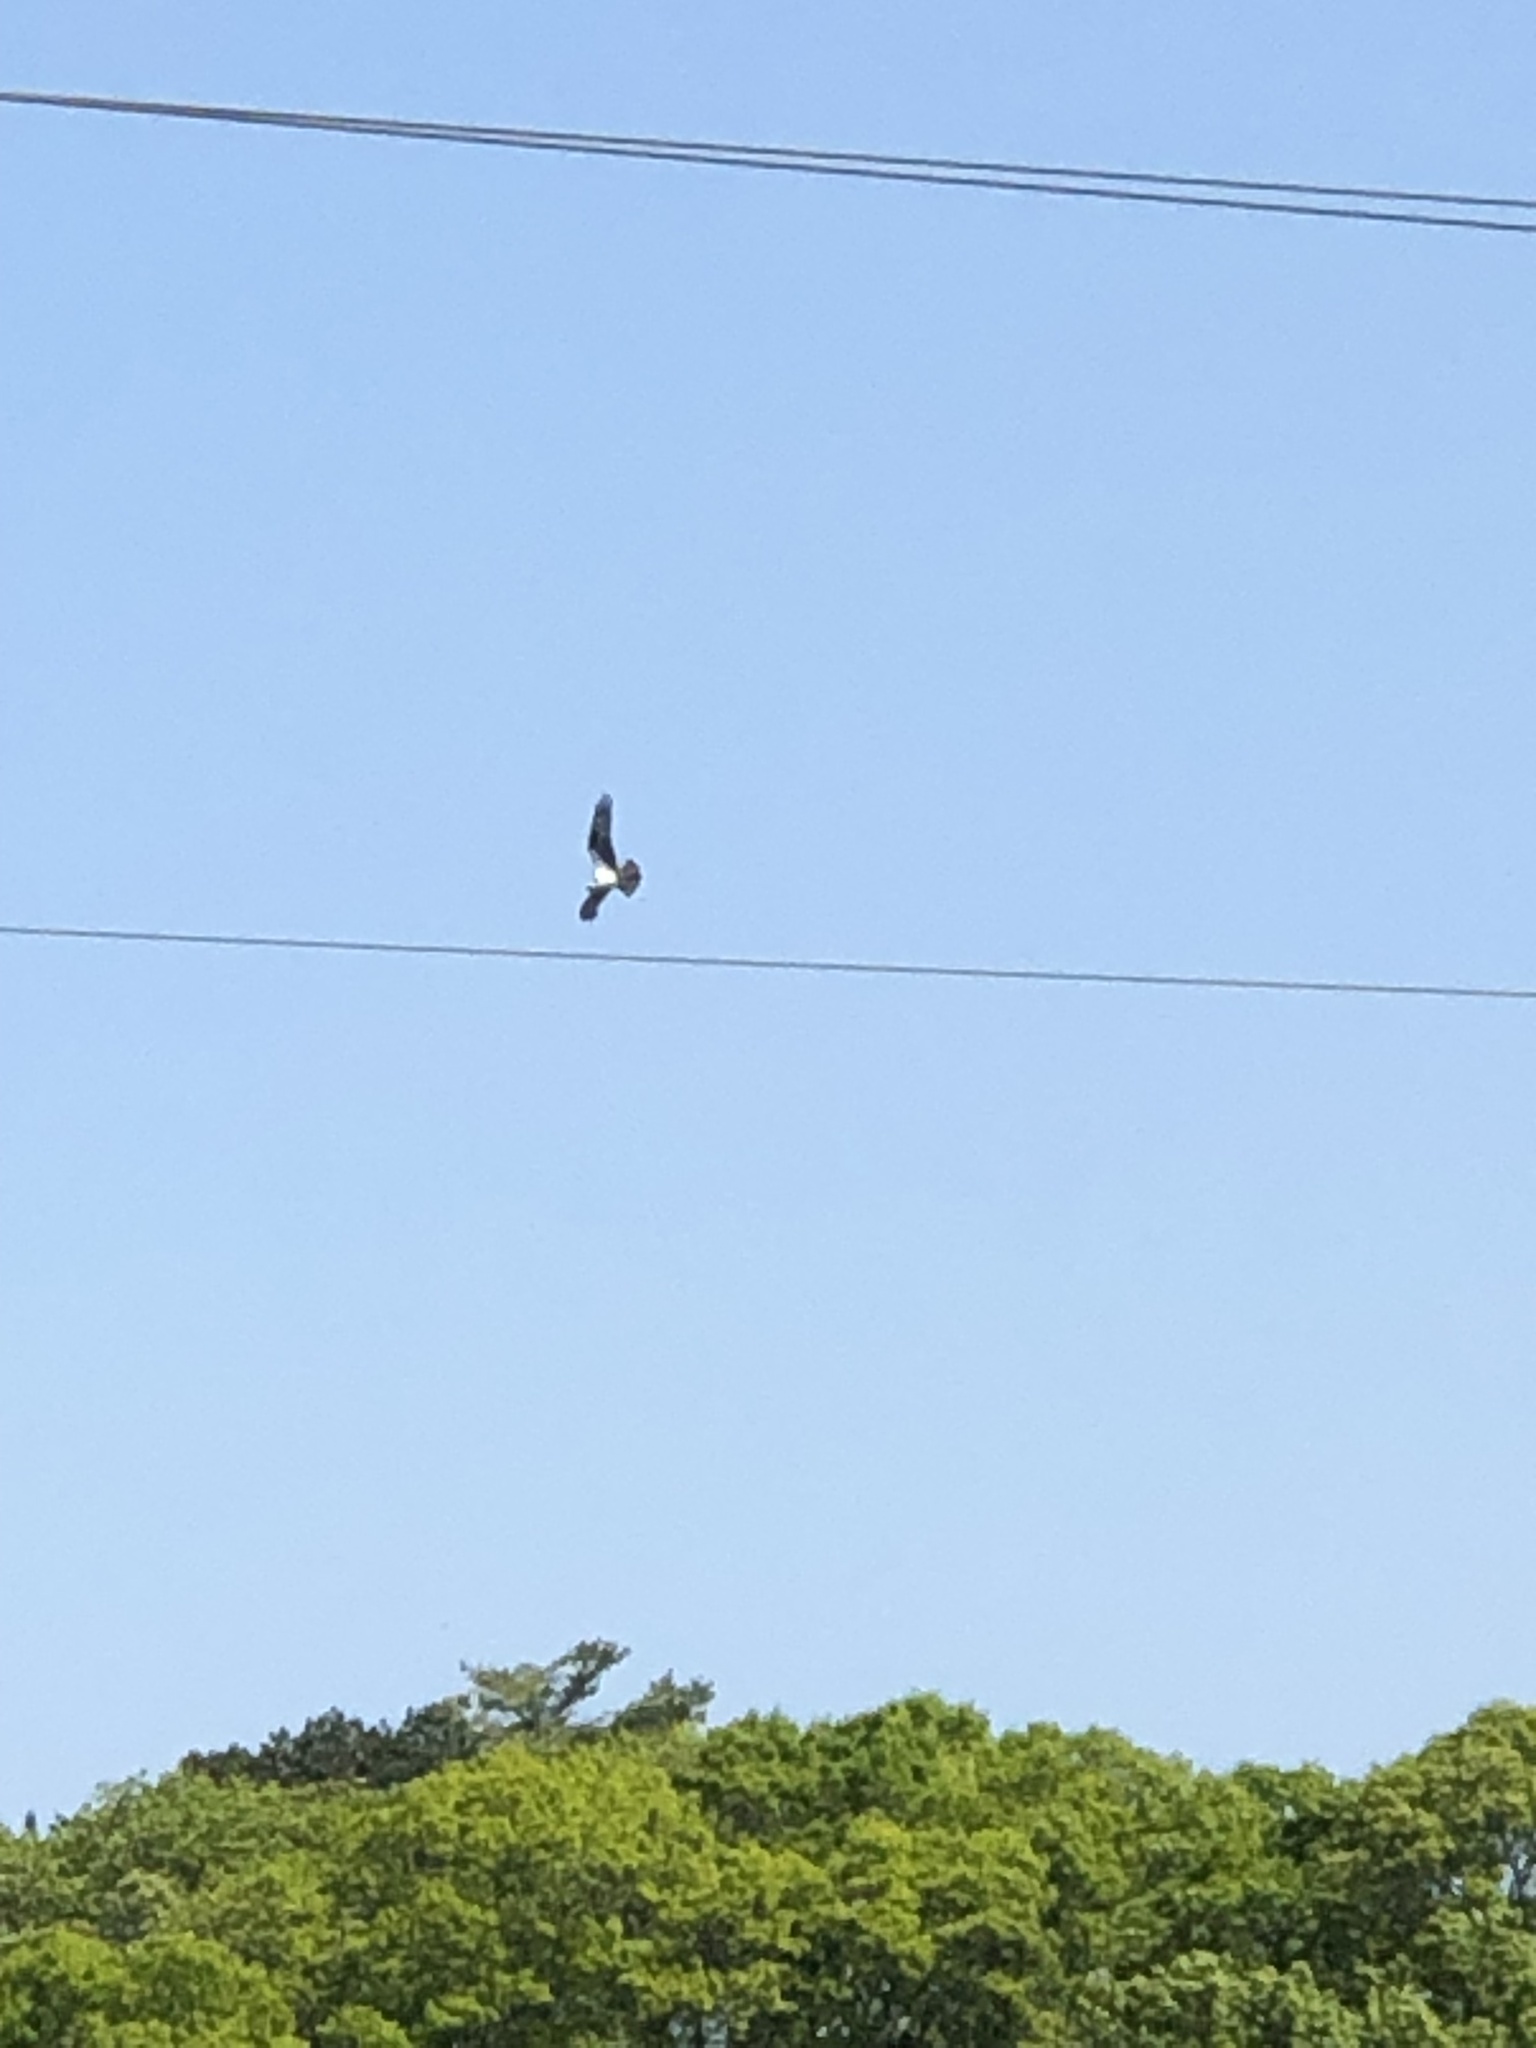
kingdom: Animalia
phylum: Chordata
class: Aves
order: Accipitriformes
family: Pandionidae
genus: Pandion
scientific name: Pandion haliaetus
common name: Osprey
